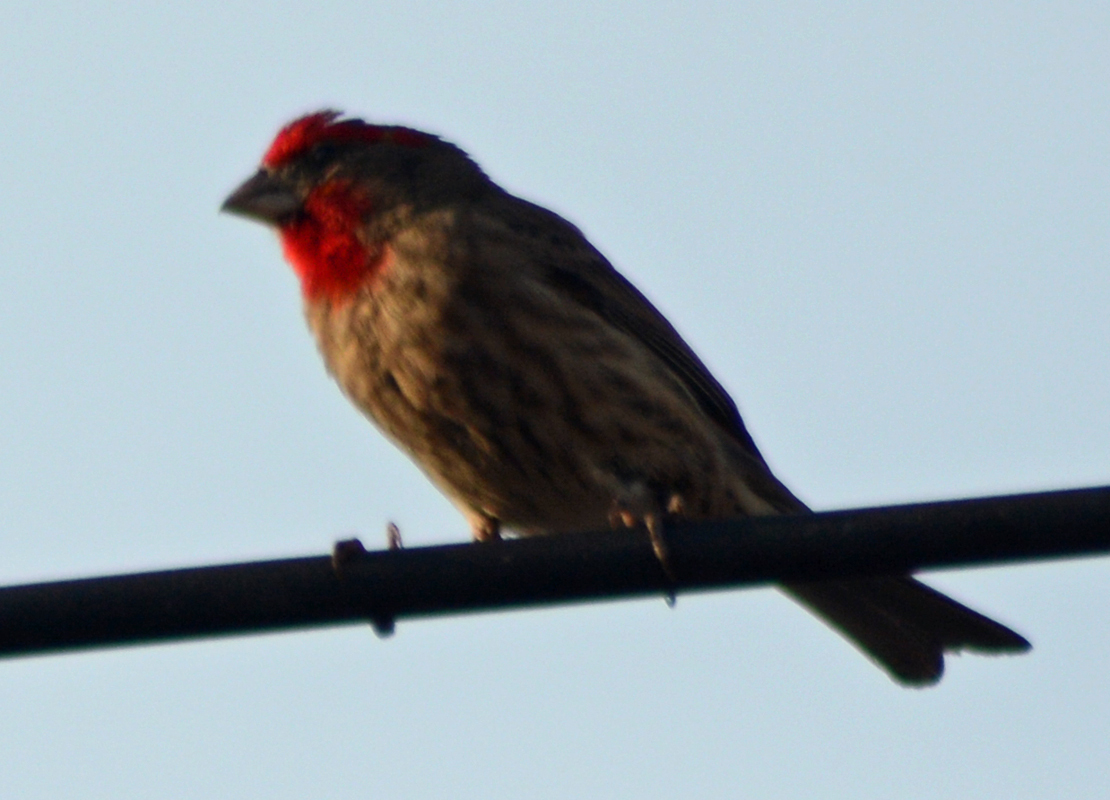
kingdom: Animalia
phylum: Chordata
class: Aves
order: Passeriformes
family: Fringillidae
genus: Haemorhous
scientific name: Haemorhous mexicanus
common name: House finch
